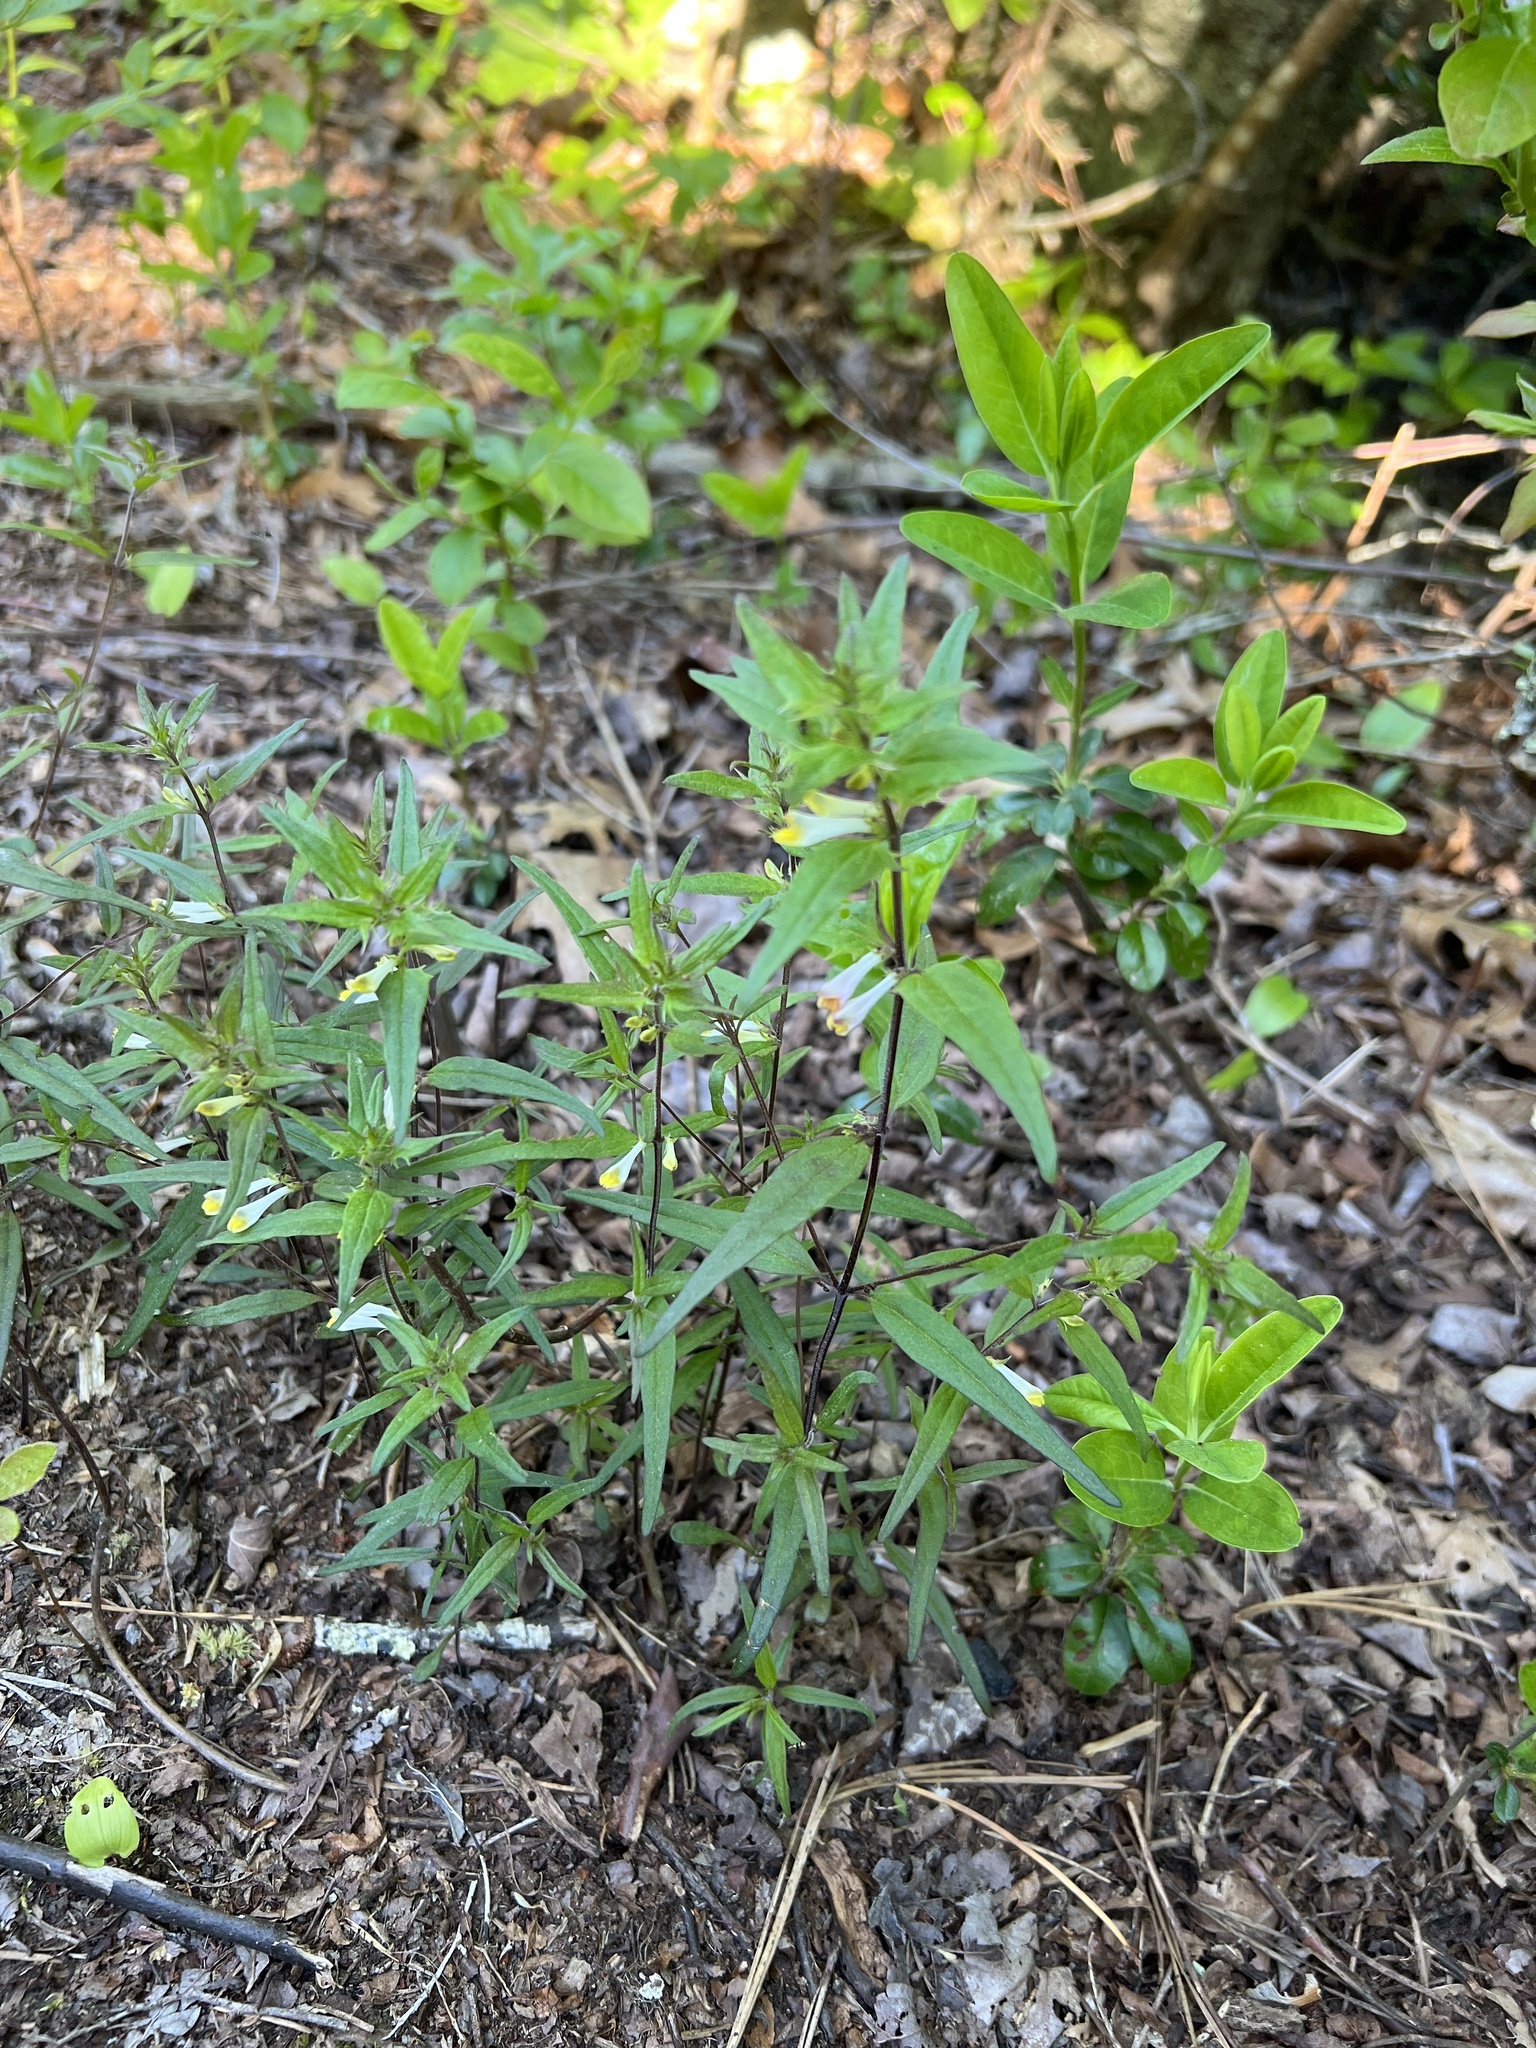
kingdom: Plantae
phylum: Tracheophyta
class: Magnoliopsida
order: Lamiales
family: Orobanchaceae
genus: Melampyrum
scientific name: Melampyrum lineare
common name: American cow-wheat
